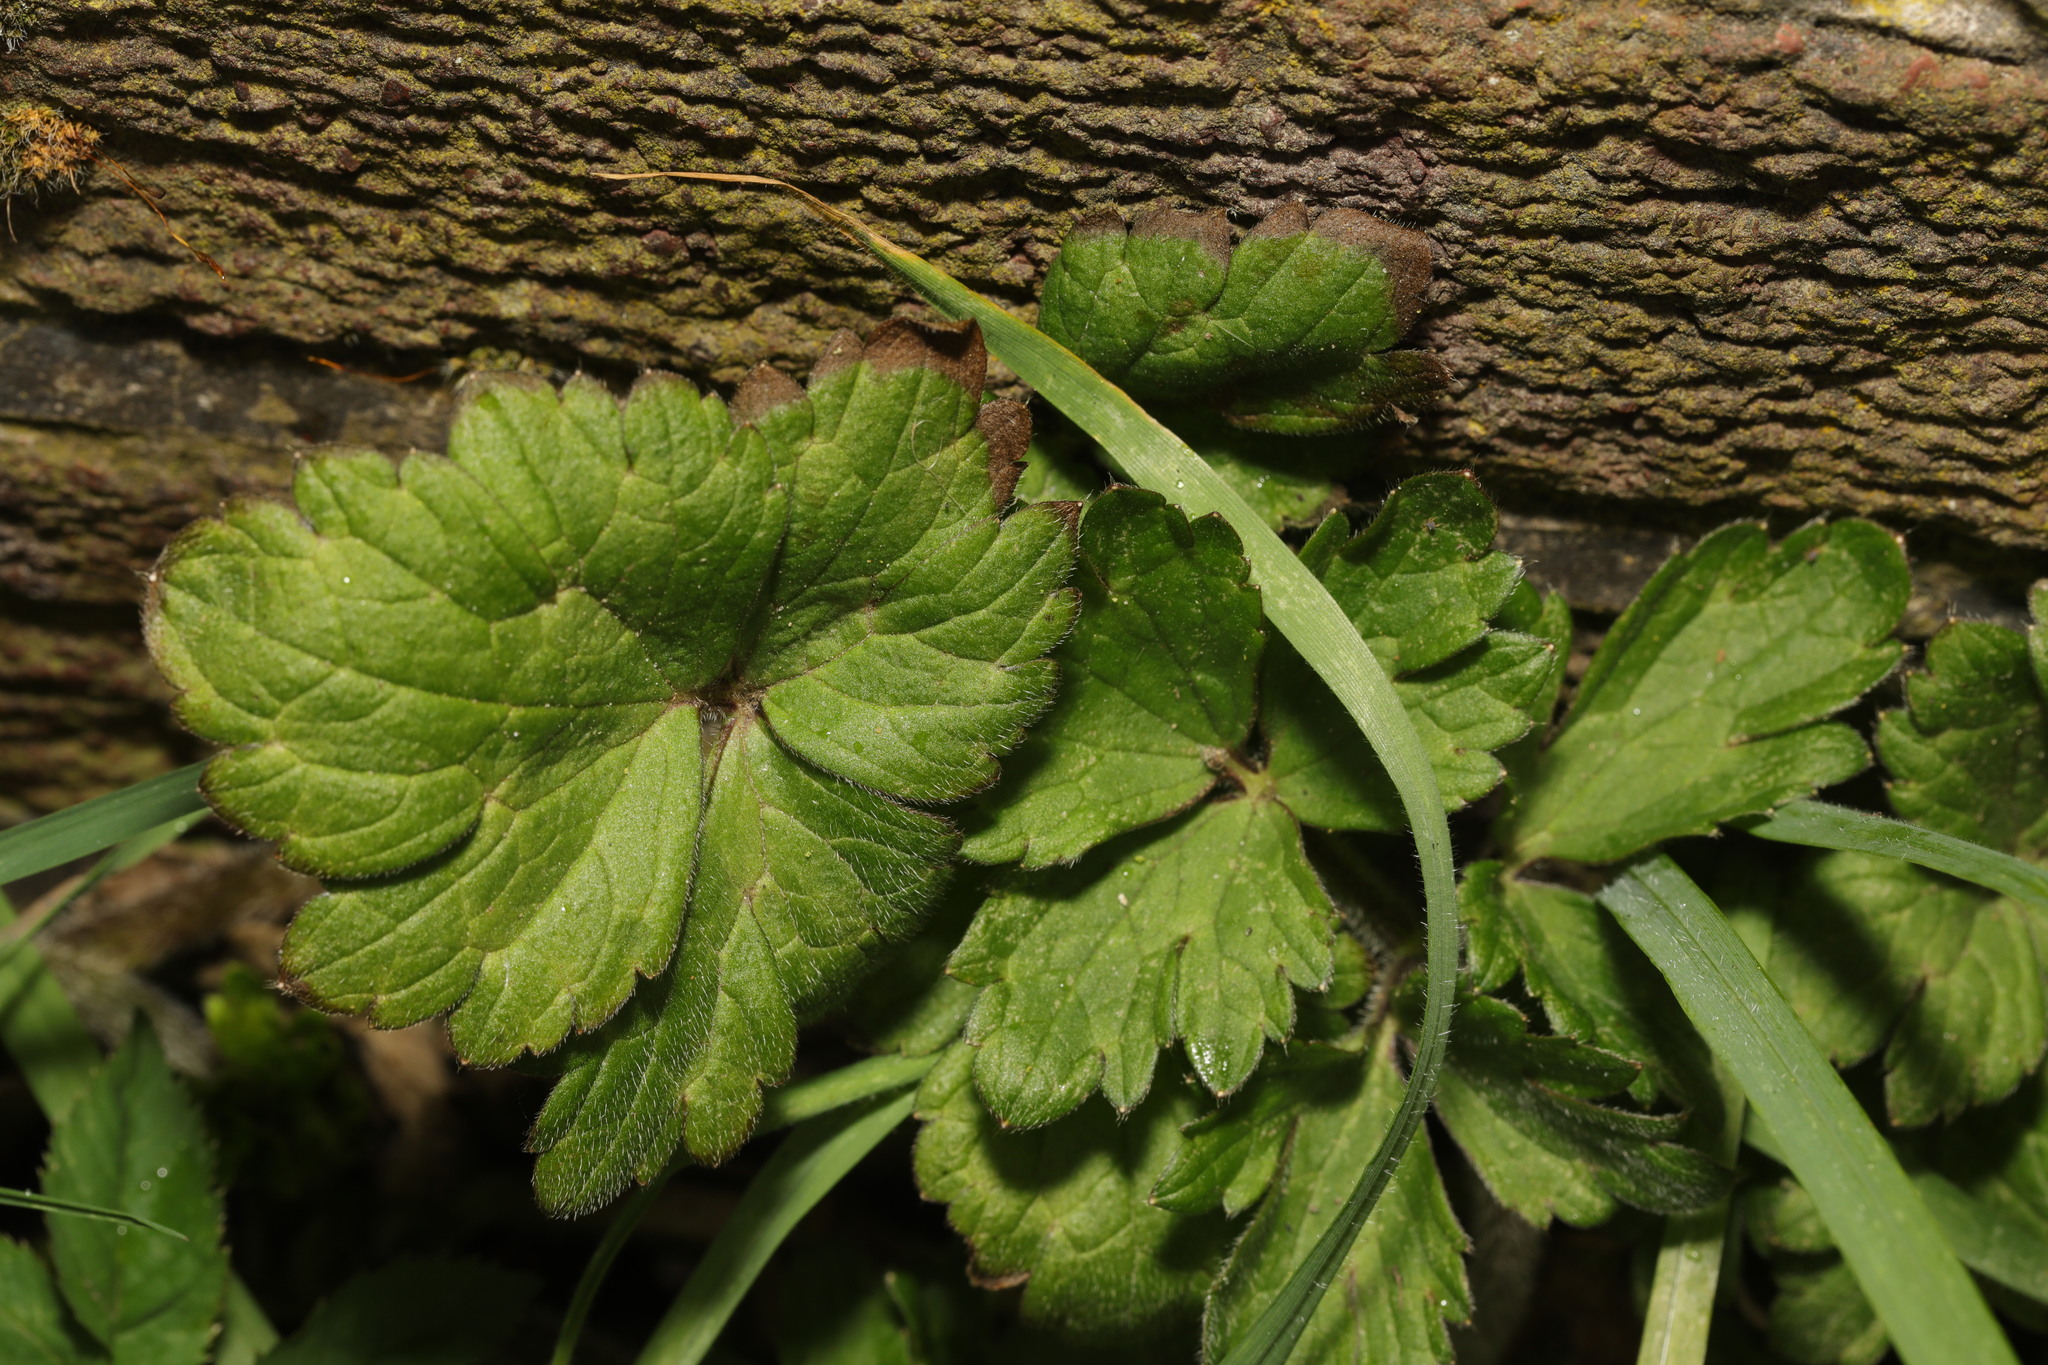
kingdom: Plantae
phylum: Tracheophyta
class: Magnoliopsida
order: Ranunculales
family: Ranunculaceae
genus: Ranunculus
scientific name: Ranunculus repens
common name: Creeping buttercup
